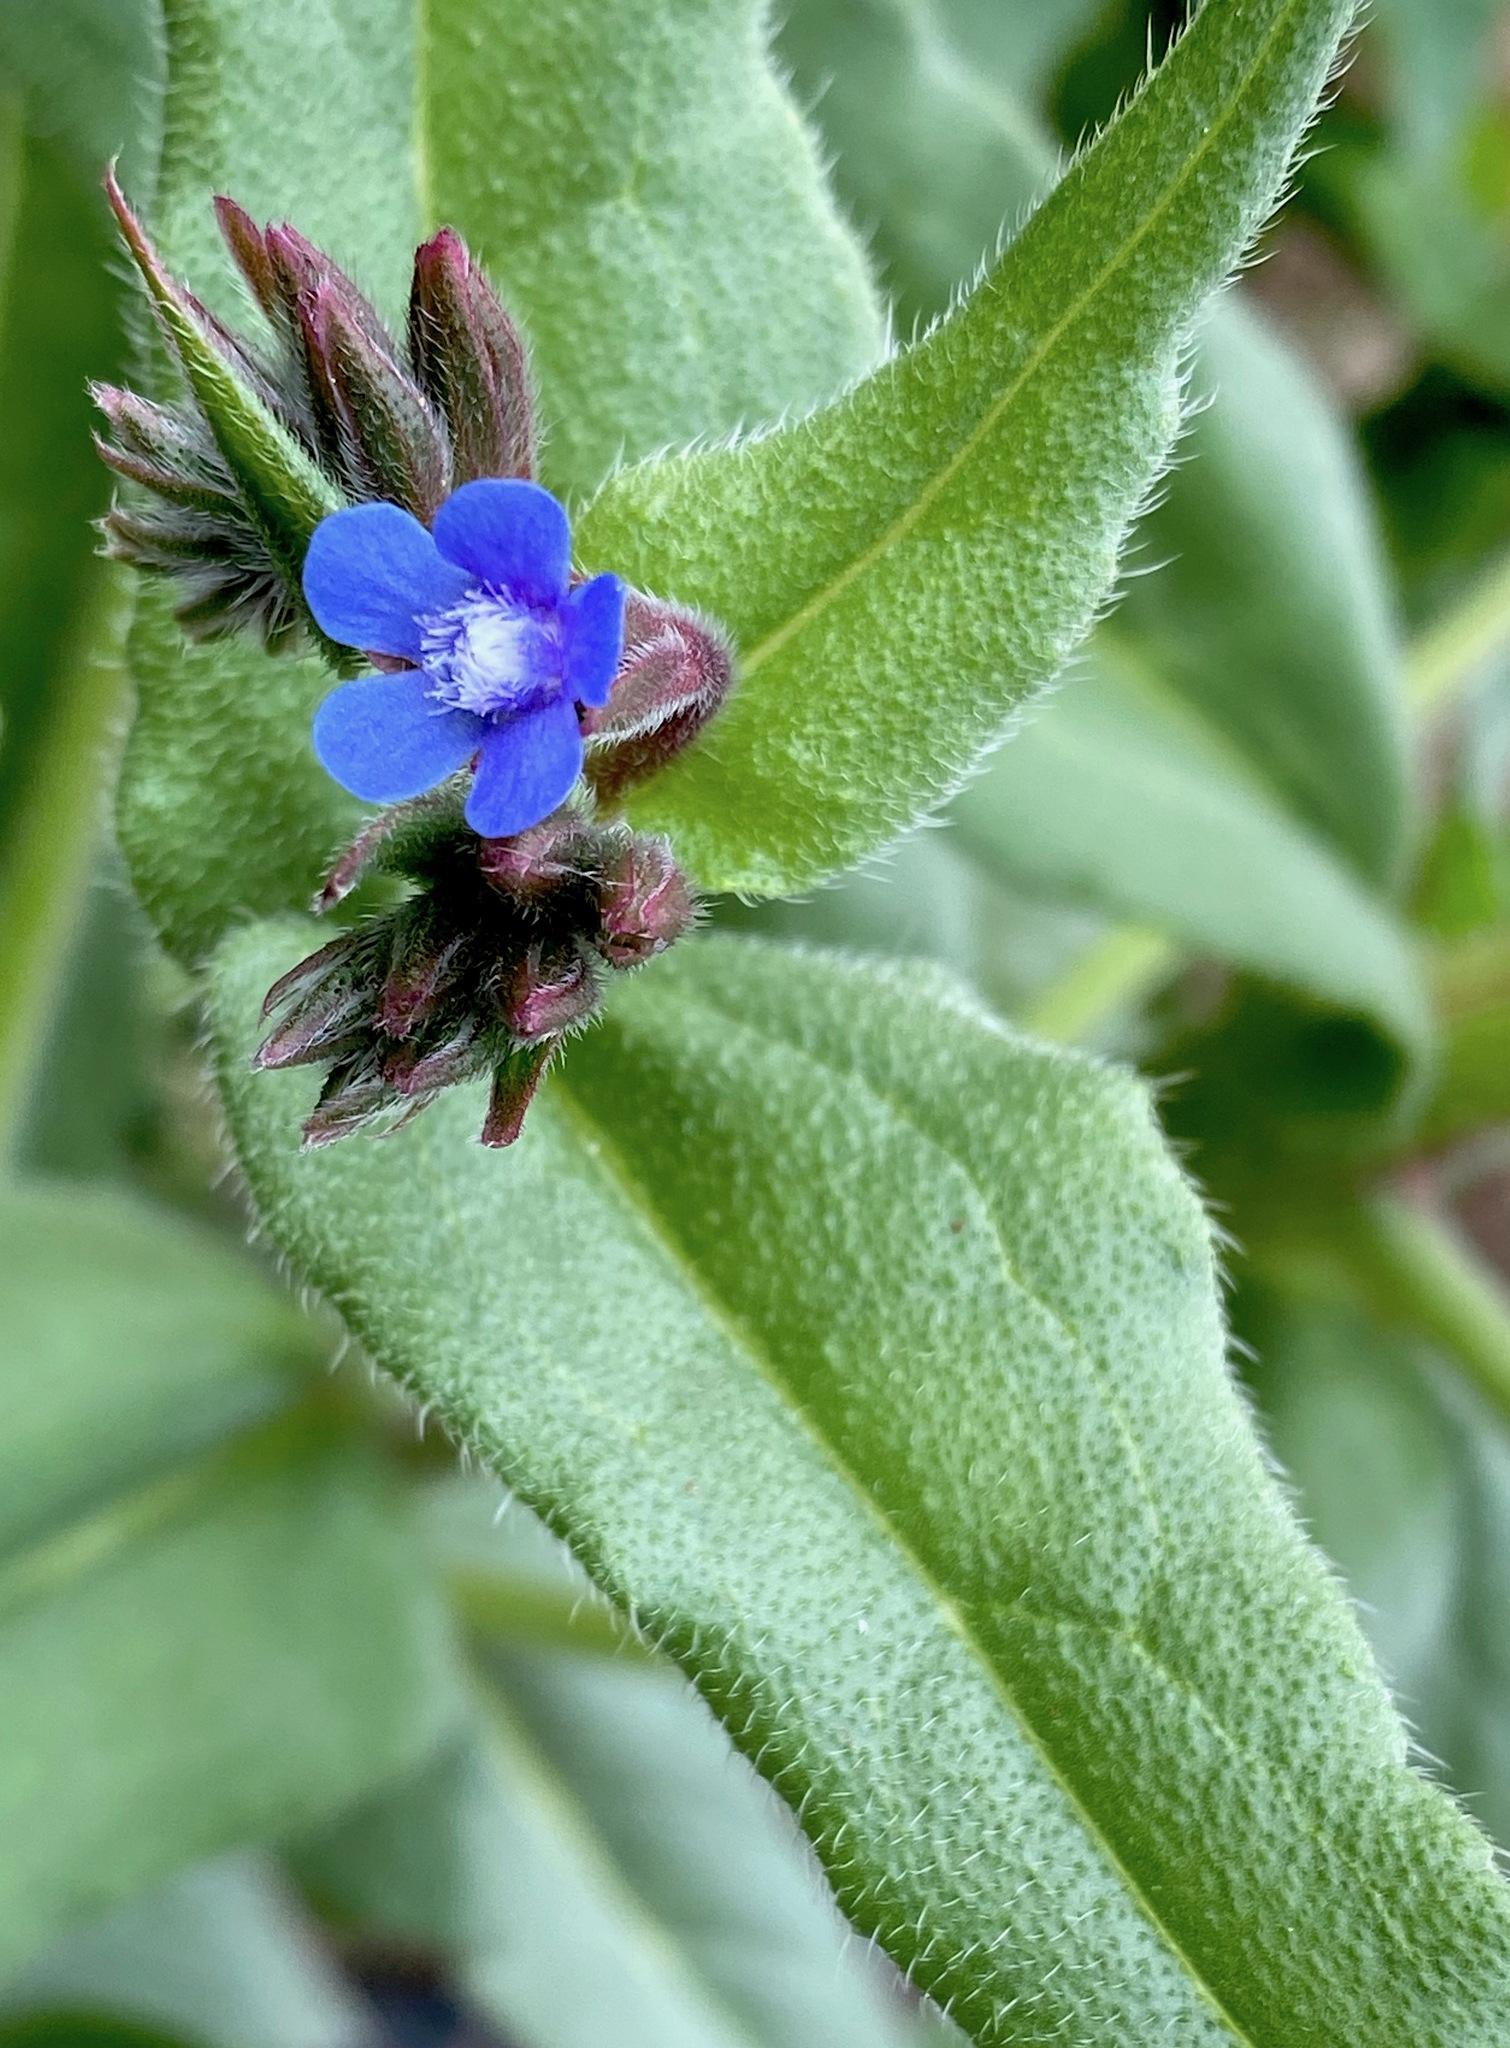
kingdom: Plantae
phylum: Tracheophyta
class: Magnoliopsida
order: Boraginales
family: Boraginaceae
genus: Anchusa
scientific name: Anchusa azurea
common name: Garden anchusa
